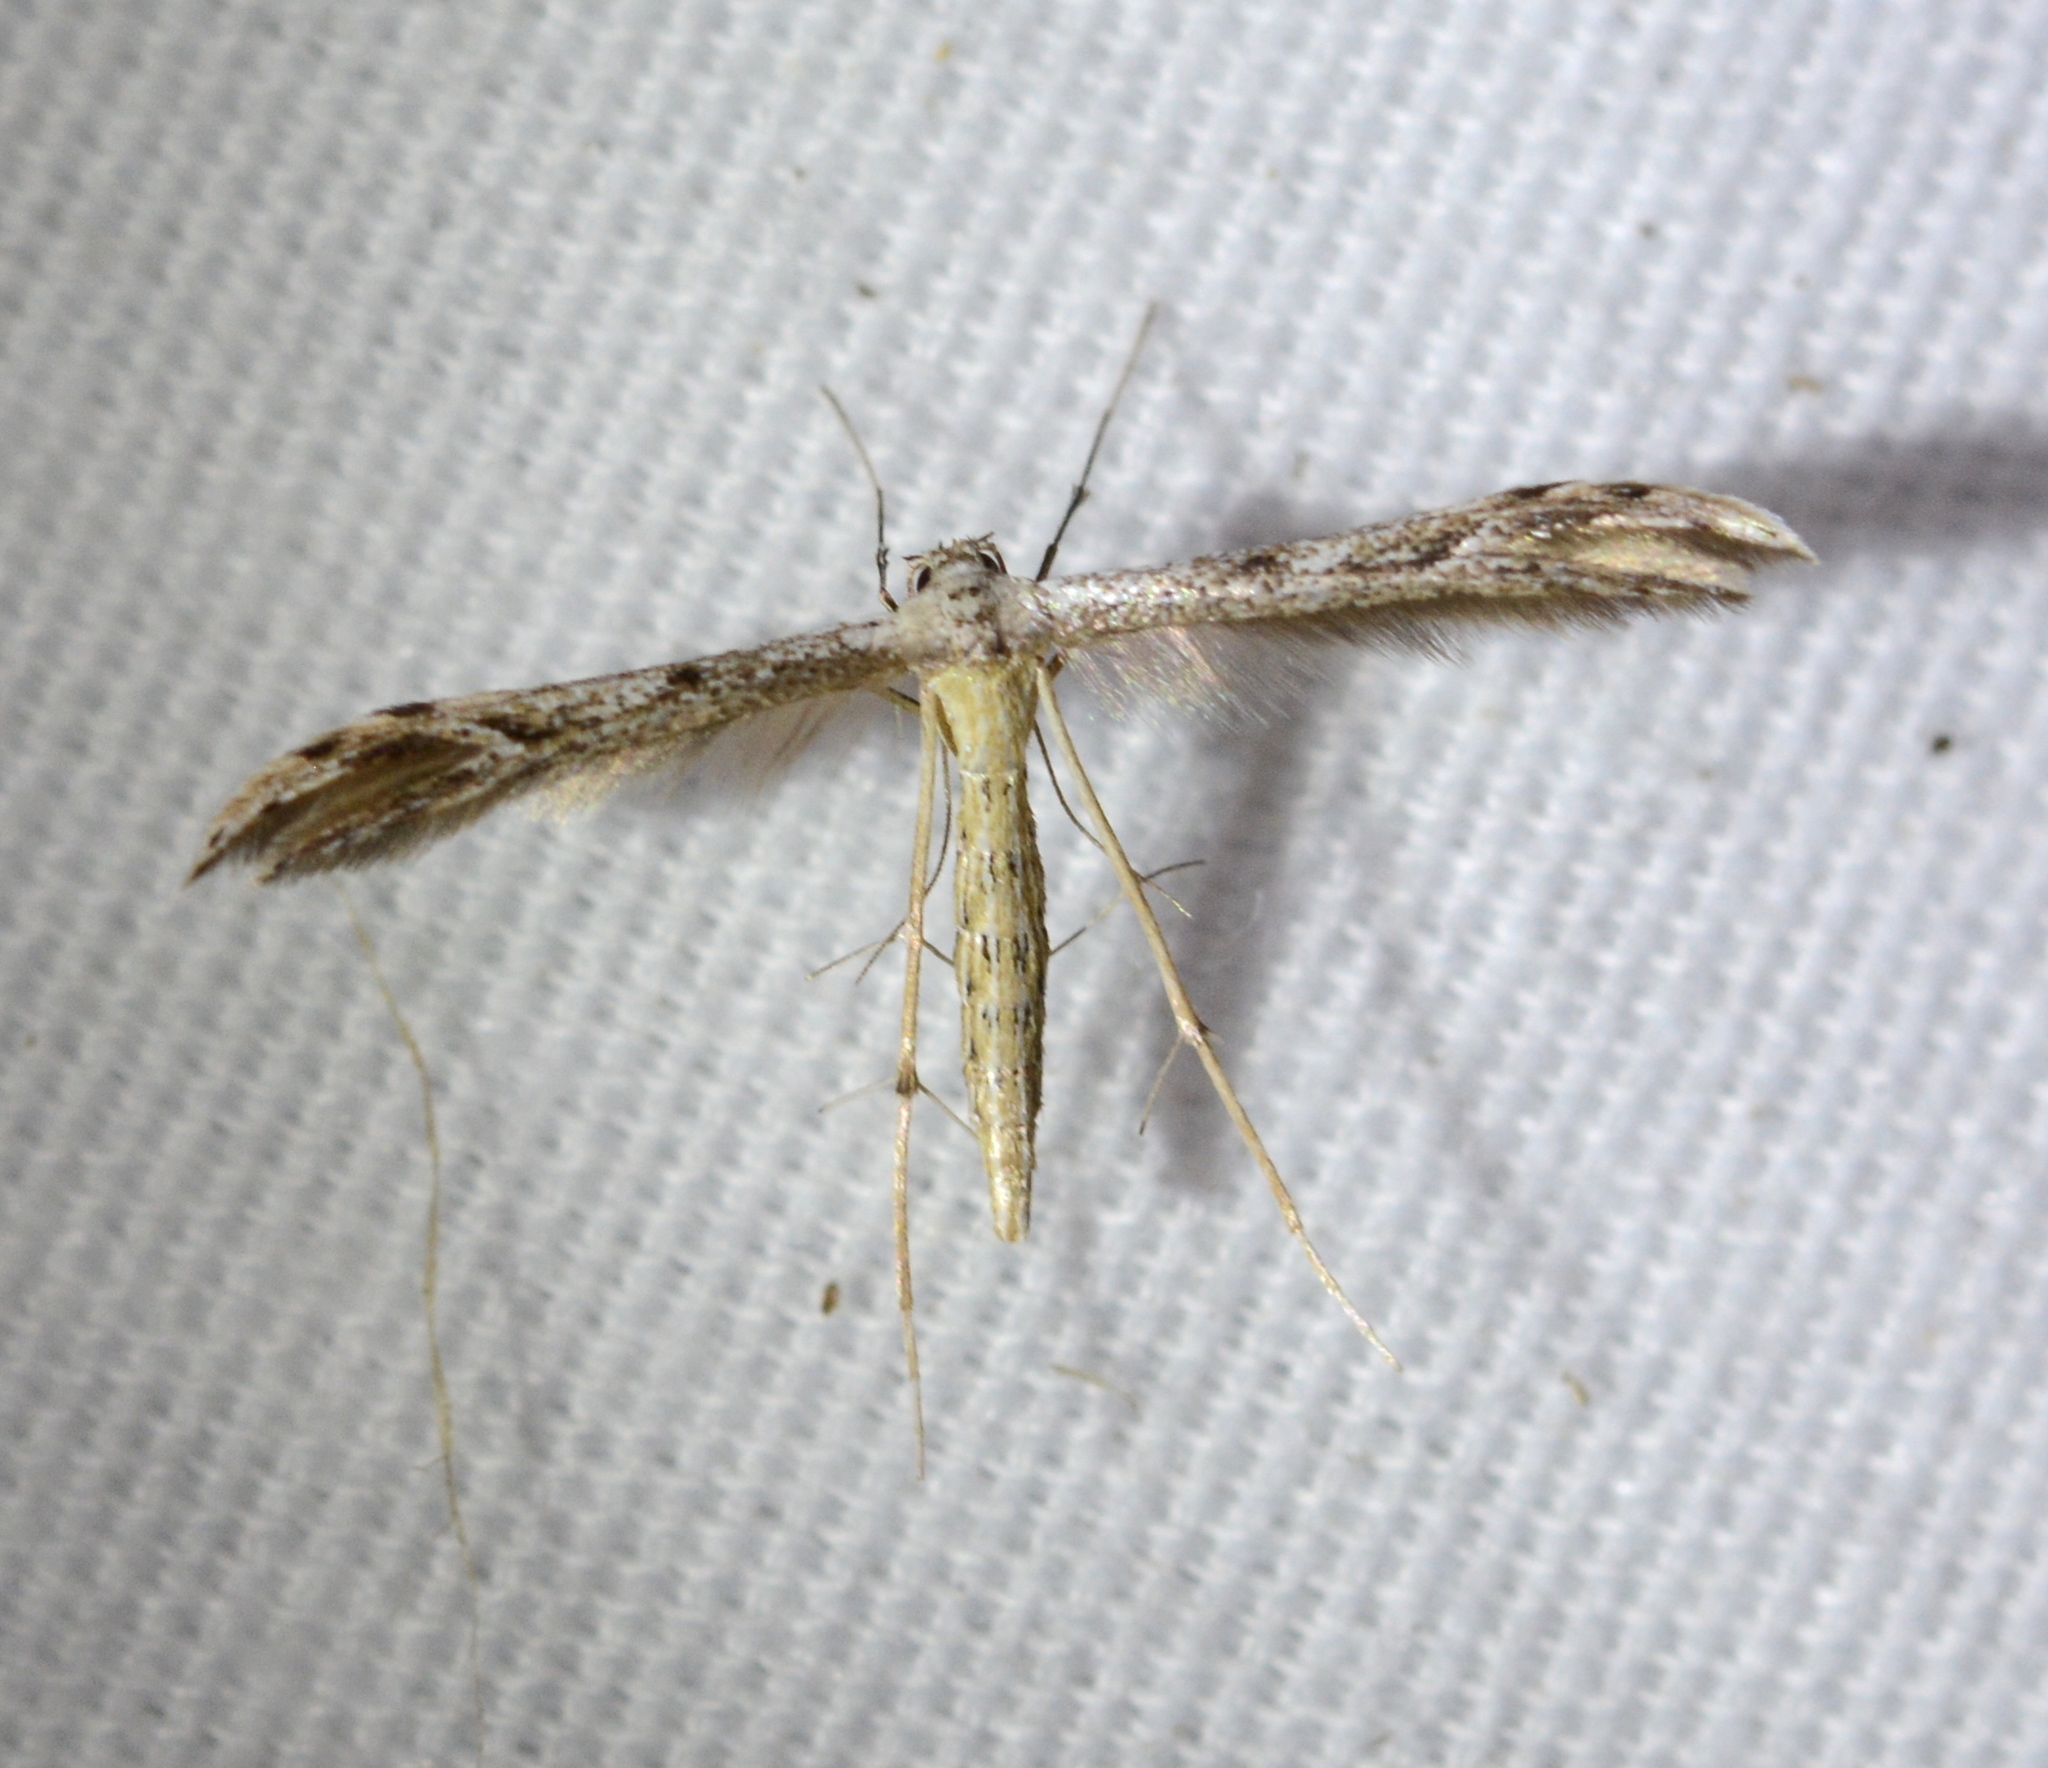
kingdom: Animalia
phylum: Arthropoda
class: Insecta
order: Lepidoptera
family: Pterophoridae
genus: Pselnophorus
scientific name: Pselnophorus belfragei
